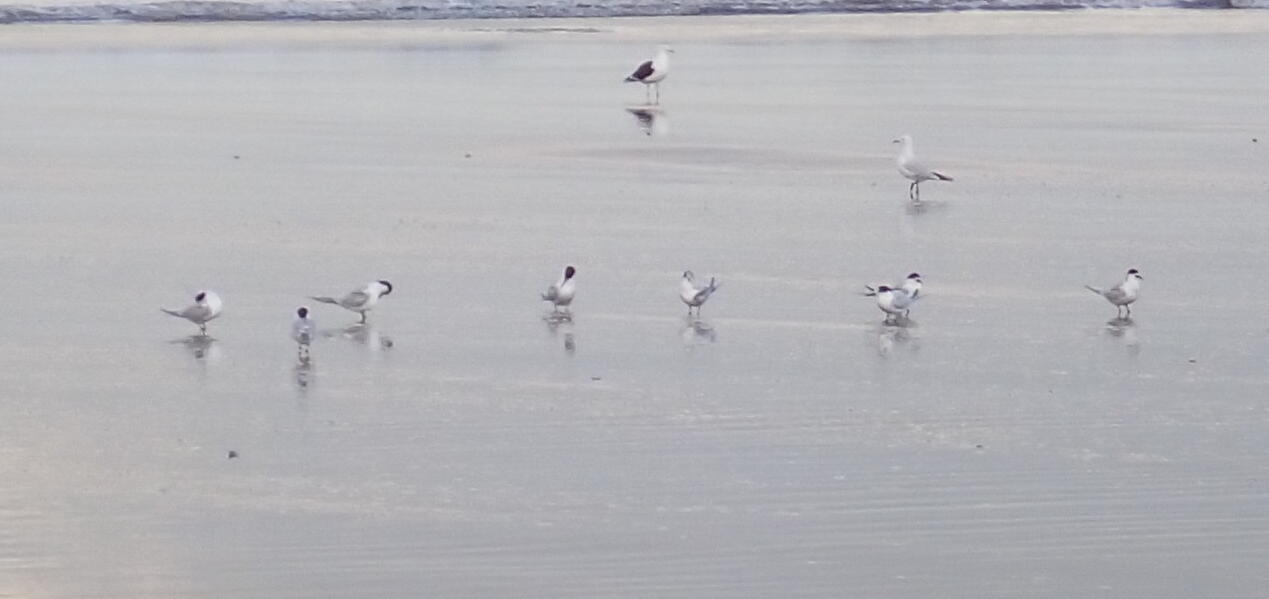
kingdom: Animalia
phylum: Chordata
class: Aves
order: Charadriiformes
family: Laridae
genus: Sterna
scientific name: Sterna striata
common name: White-fronted tern
